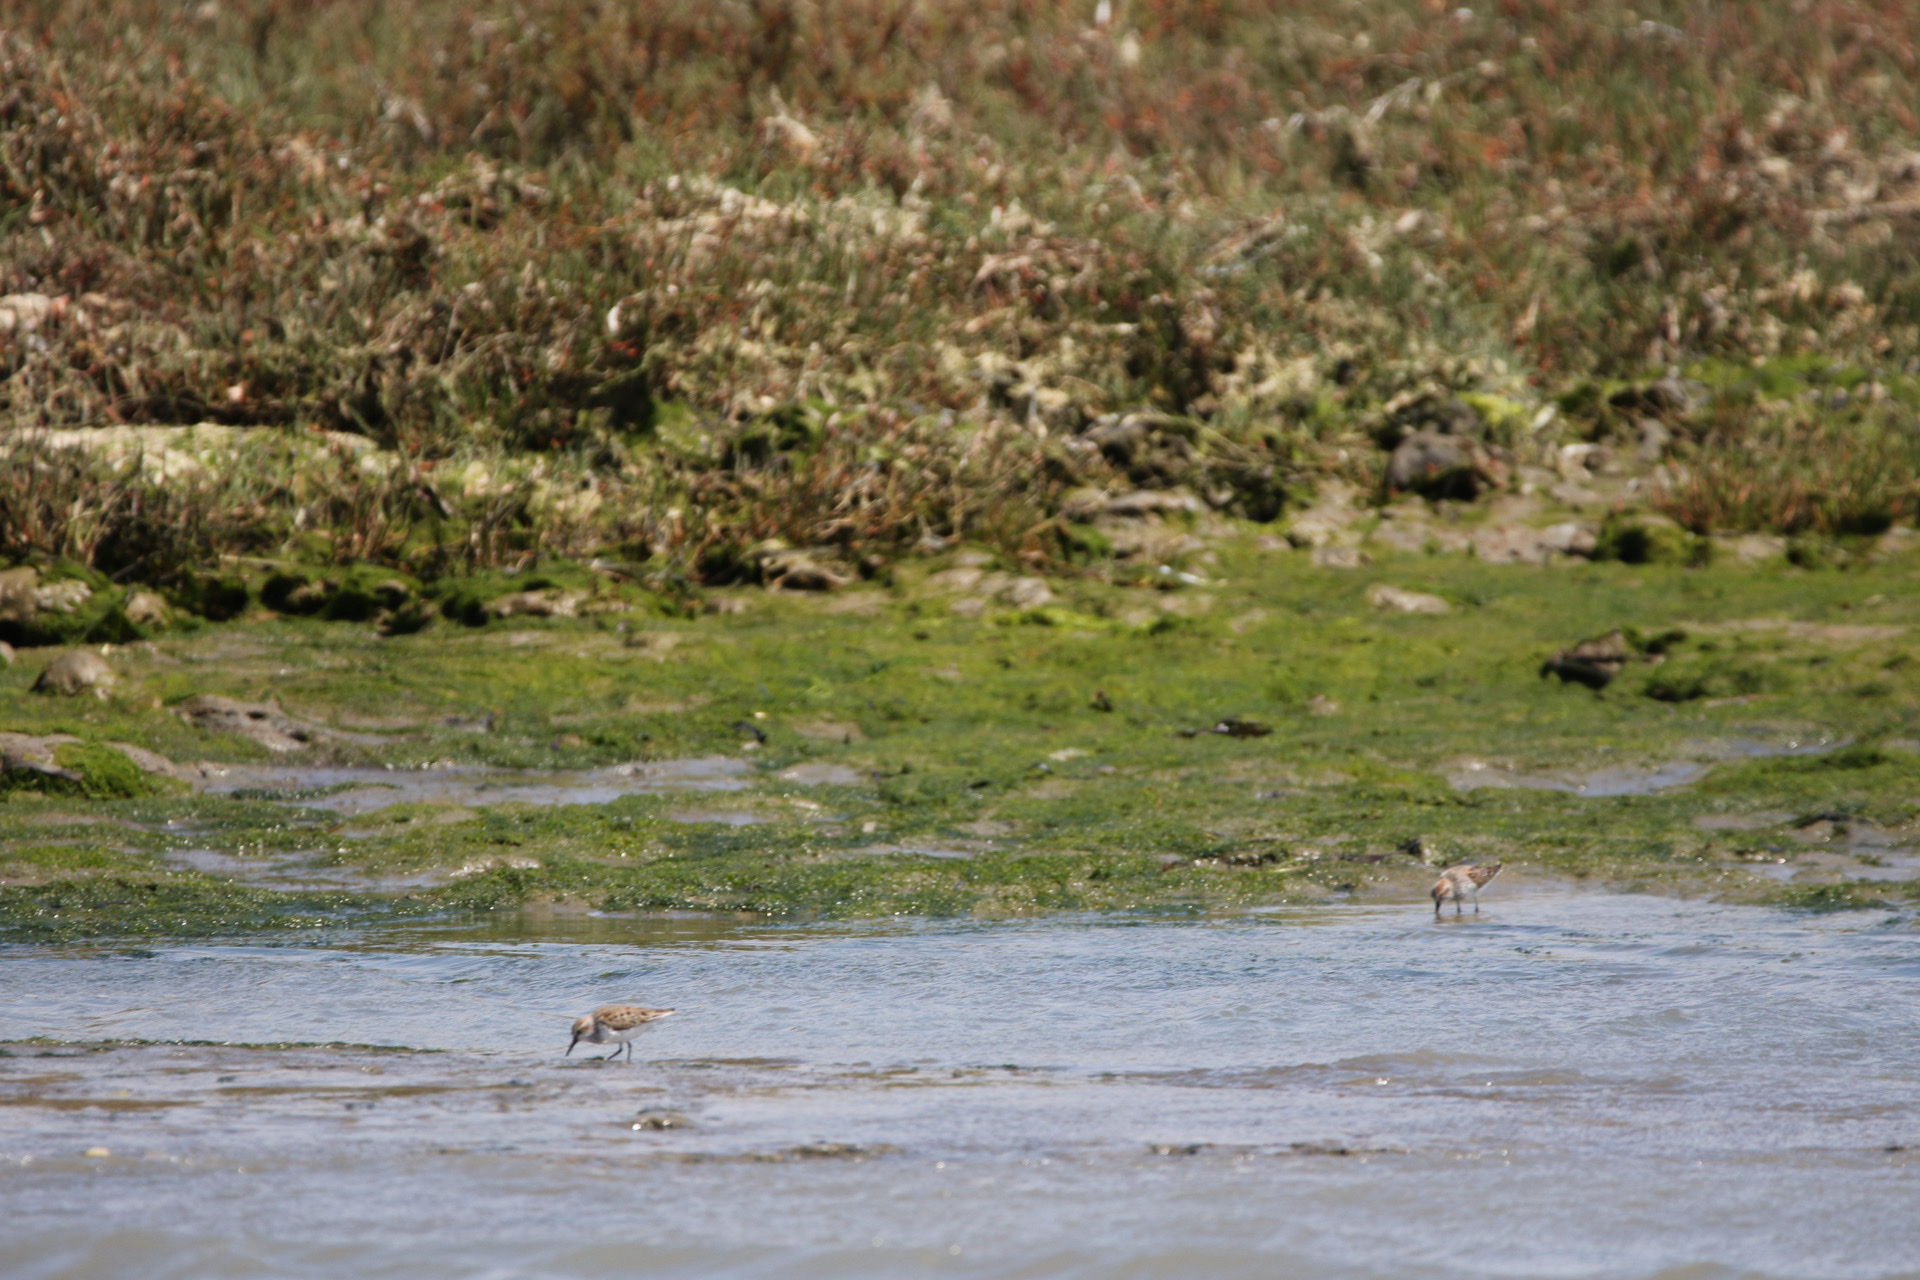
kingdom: Animalia
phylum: Chordata
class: Aves
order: Charadriiformes
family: Scolopacidae
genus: Calidris
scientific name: Calidris mauri
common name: Western sandpiper
